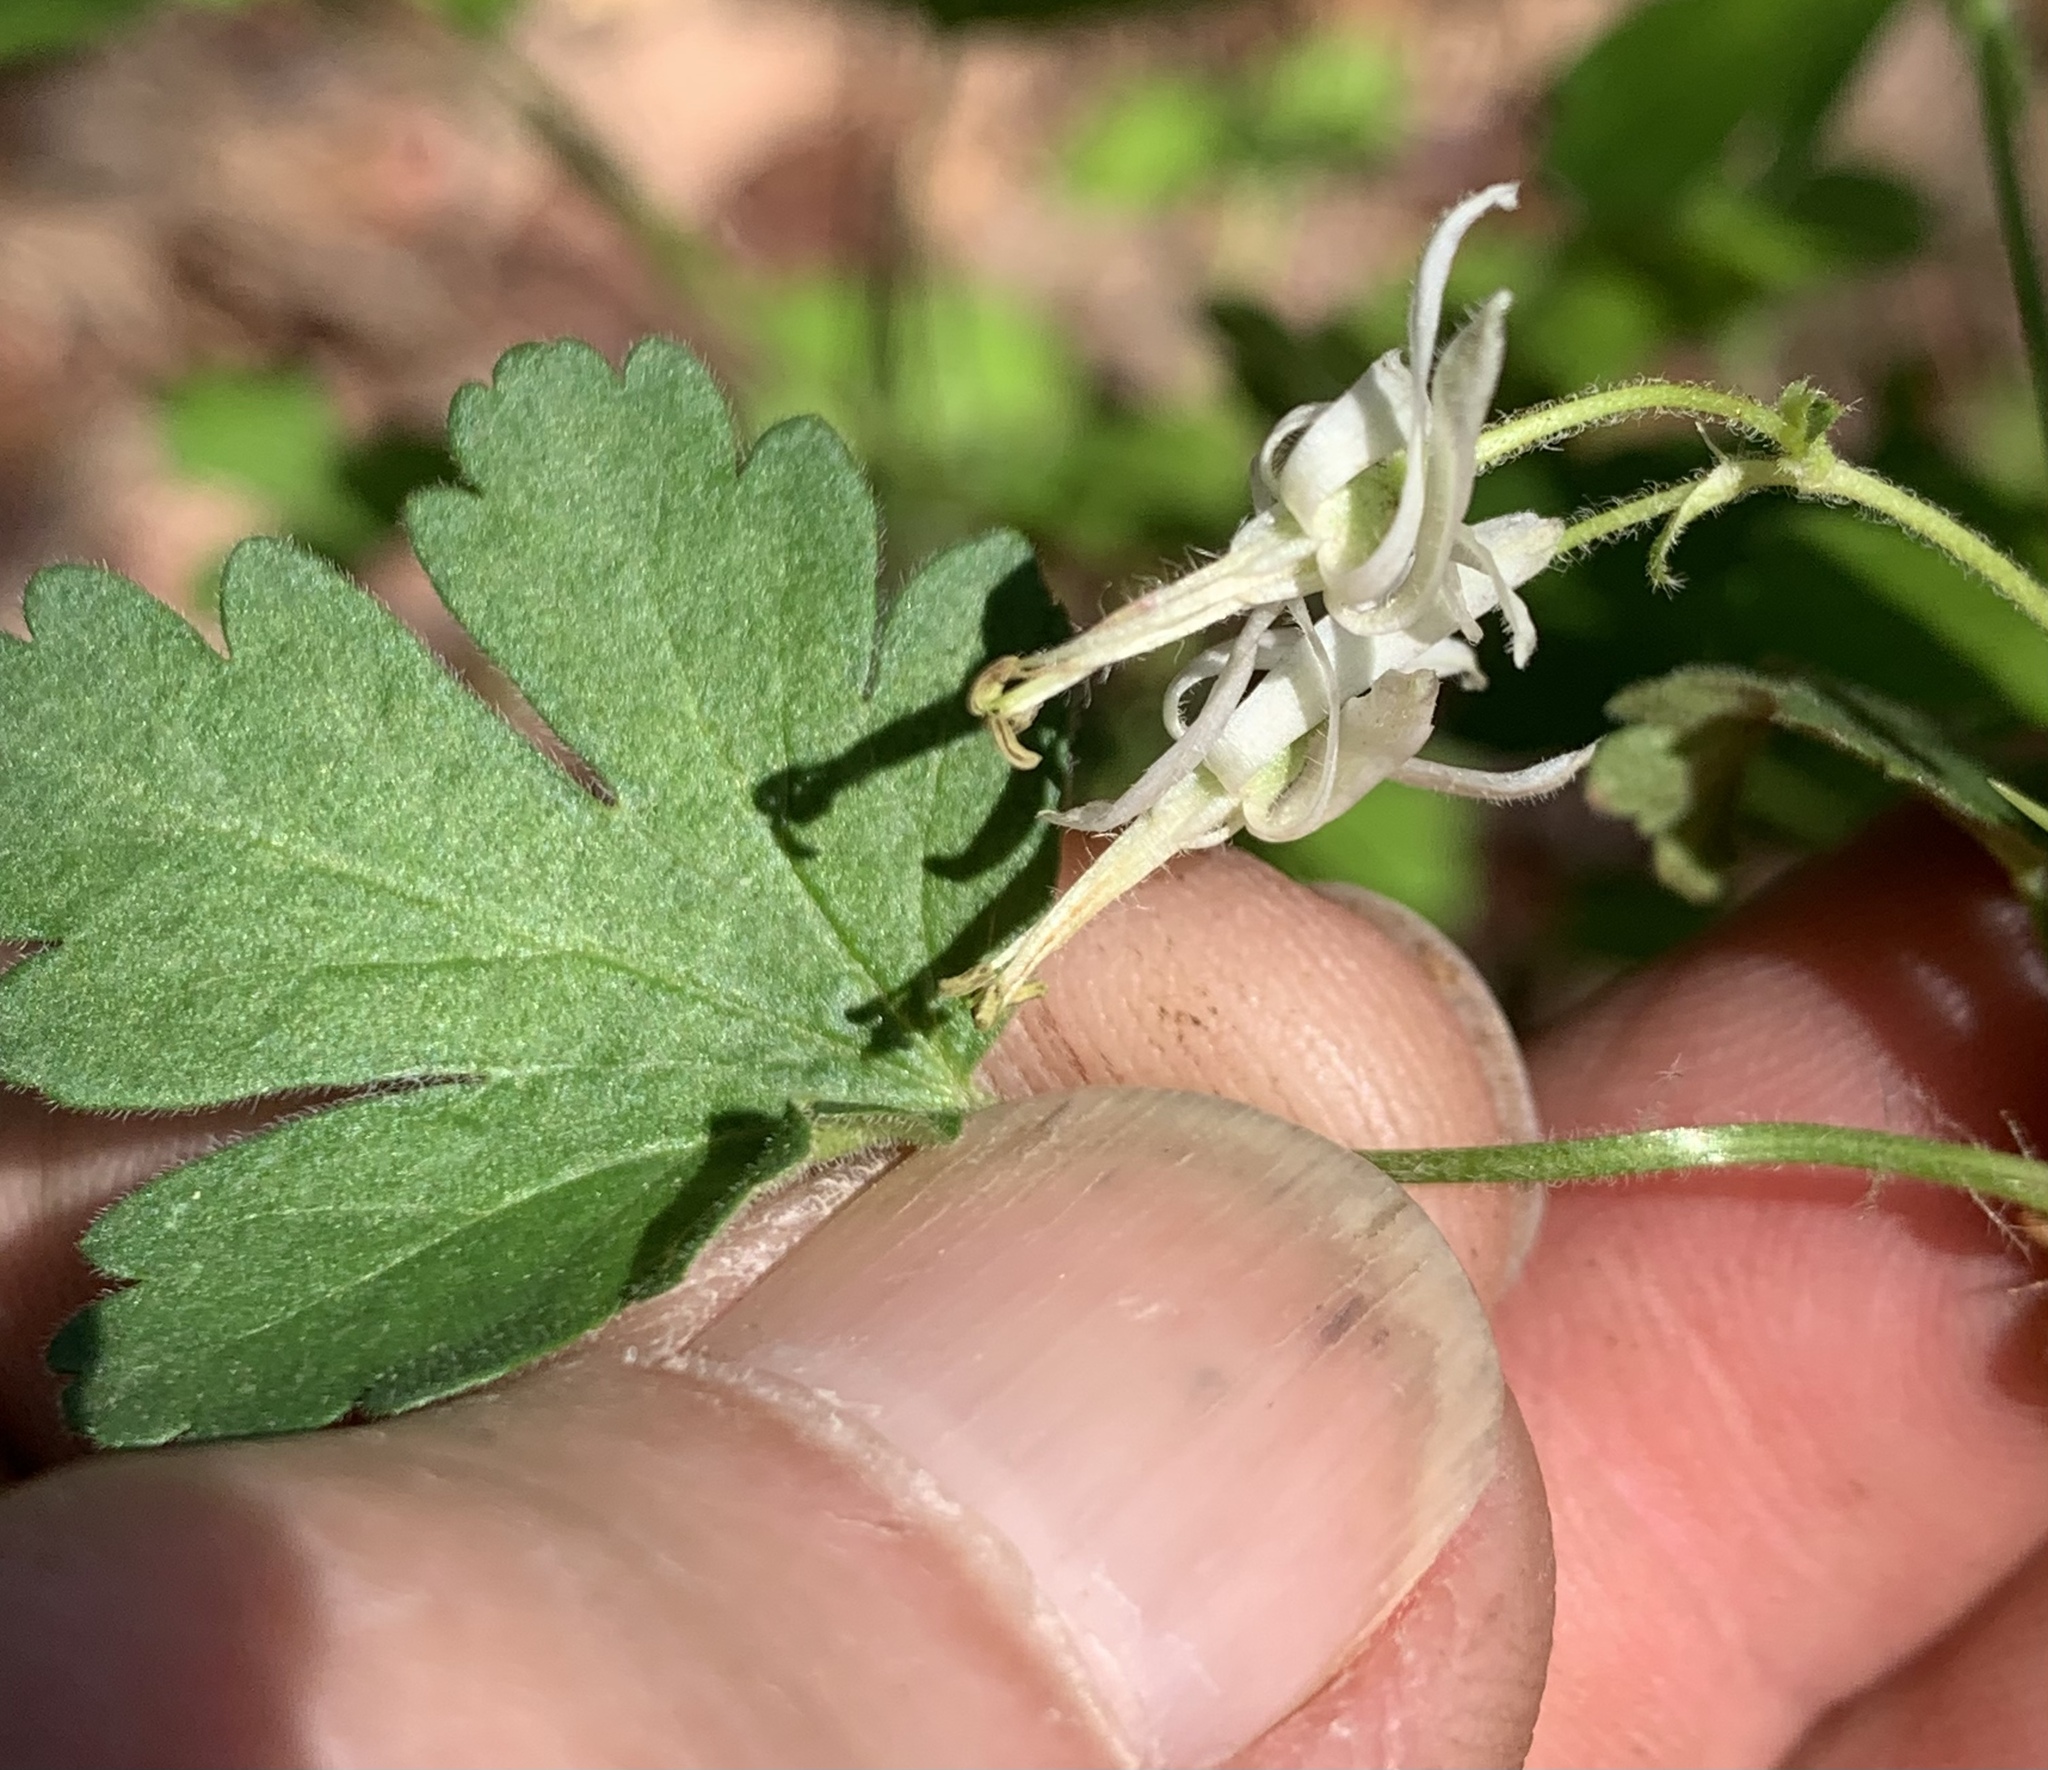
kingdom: Plantae
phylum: Tracheophyta
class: Magnoliopsida
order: Saxifragales
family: Grossulariaceae
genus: Ribes
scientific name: Ribes curvatum
